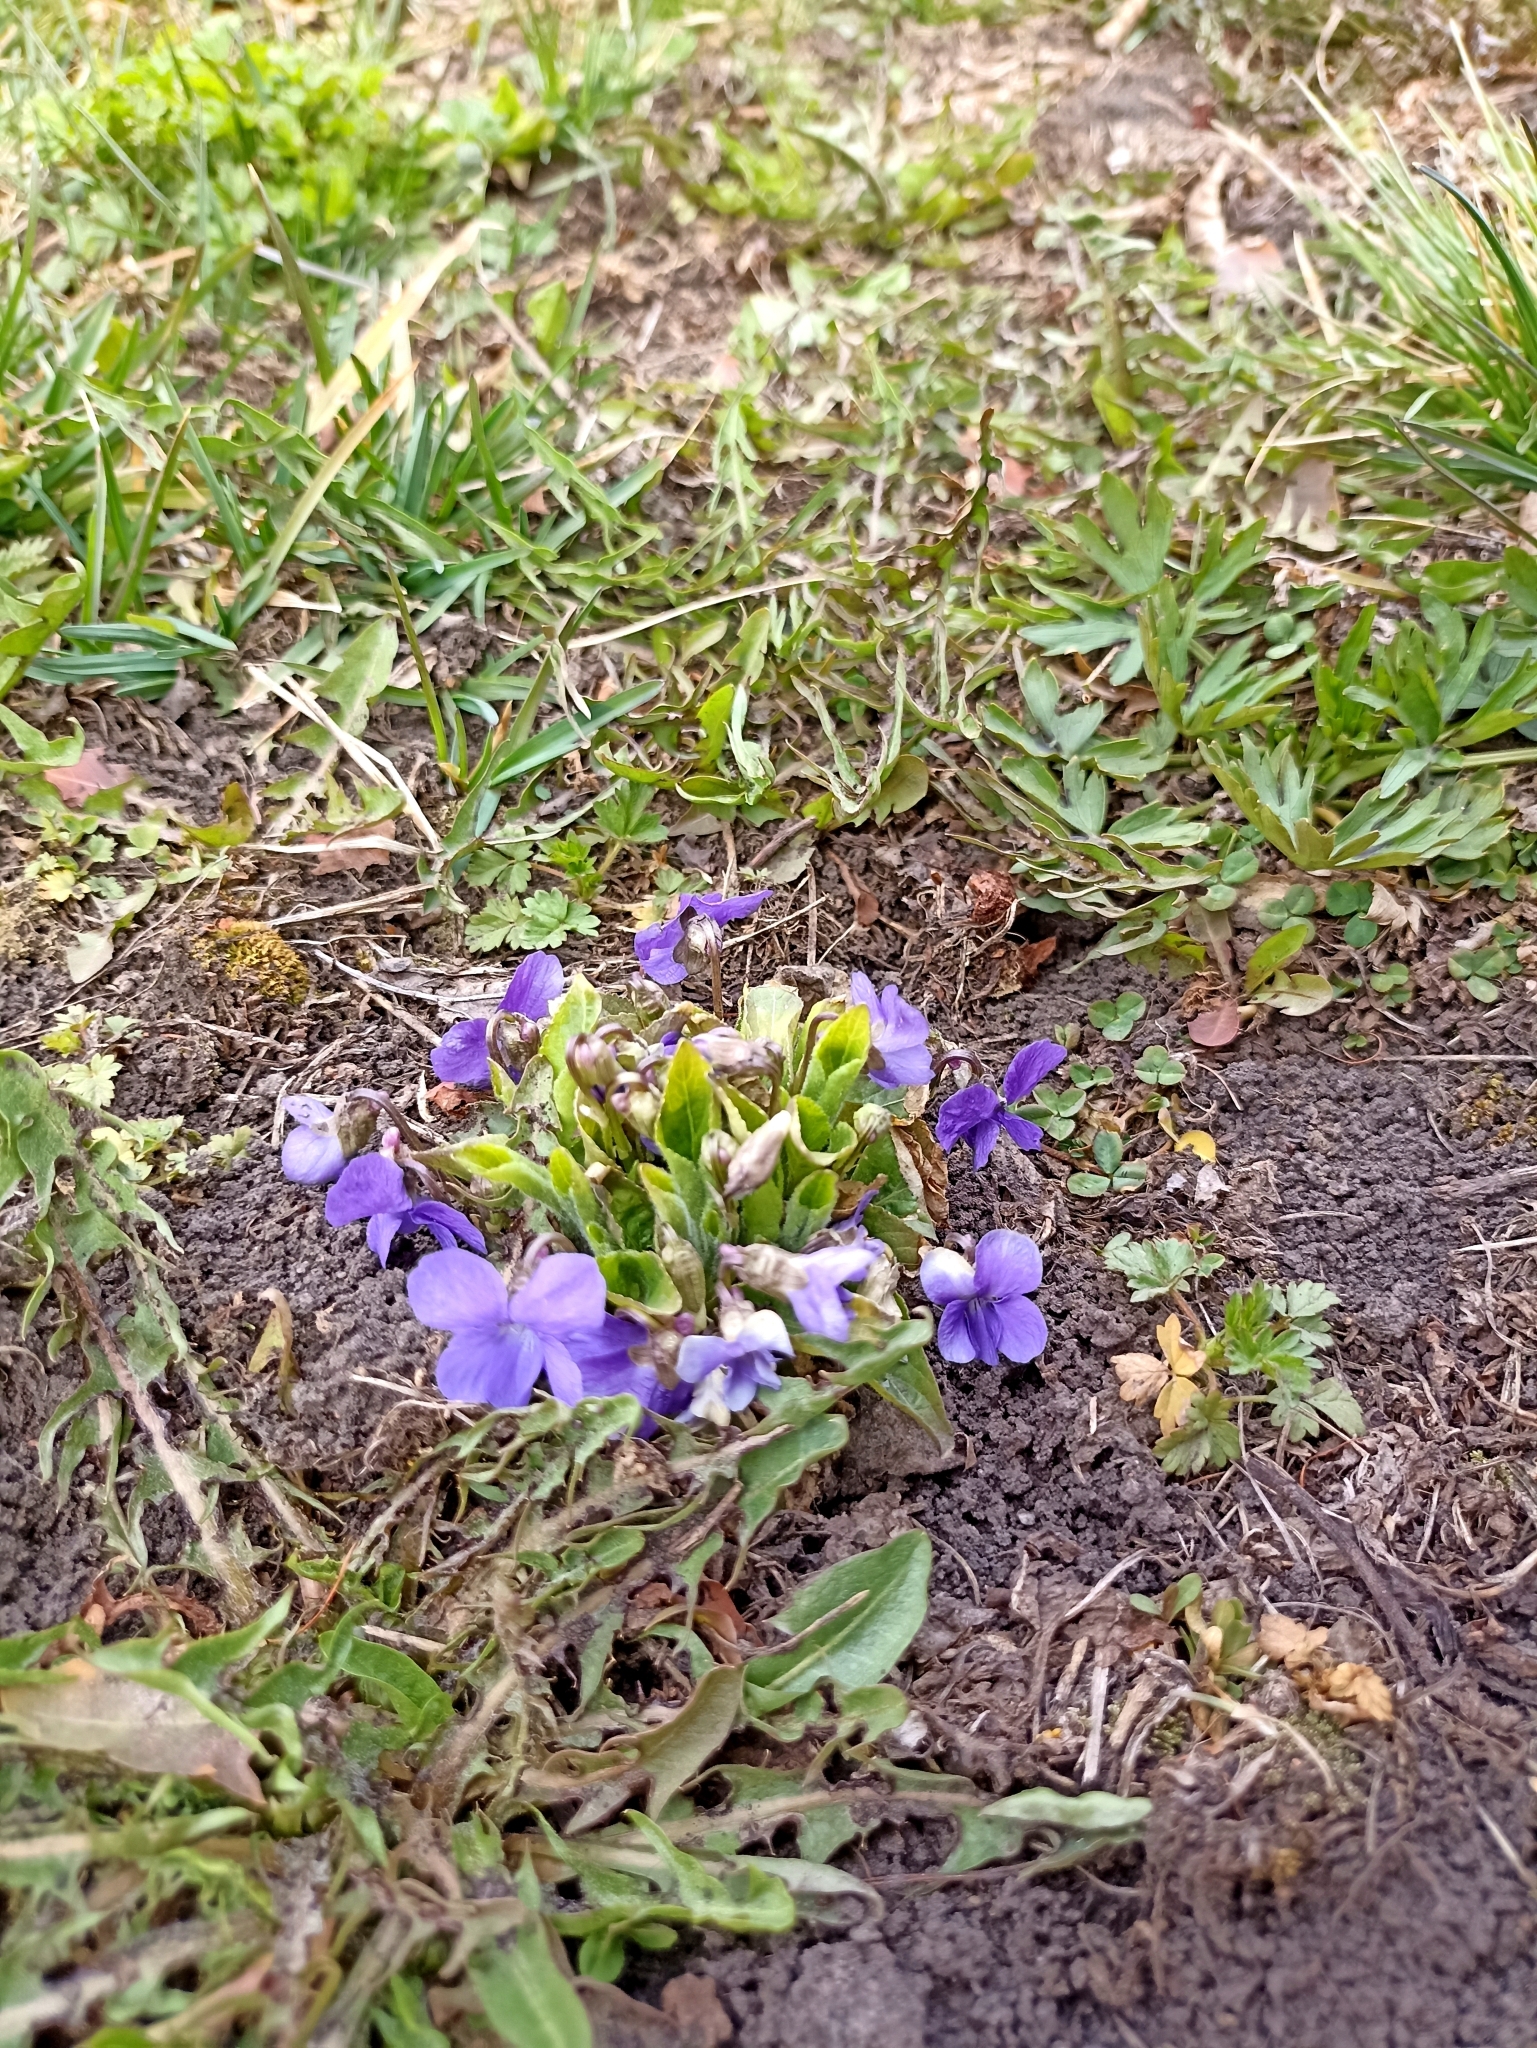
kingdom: Plantae
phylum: Tracheophyta
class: Magnoliopsida
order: Malpighiales
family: Violaceae
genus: Viola
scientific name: Viola hirta
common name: Hairy violet
